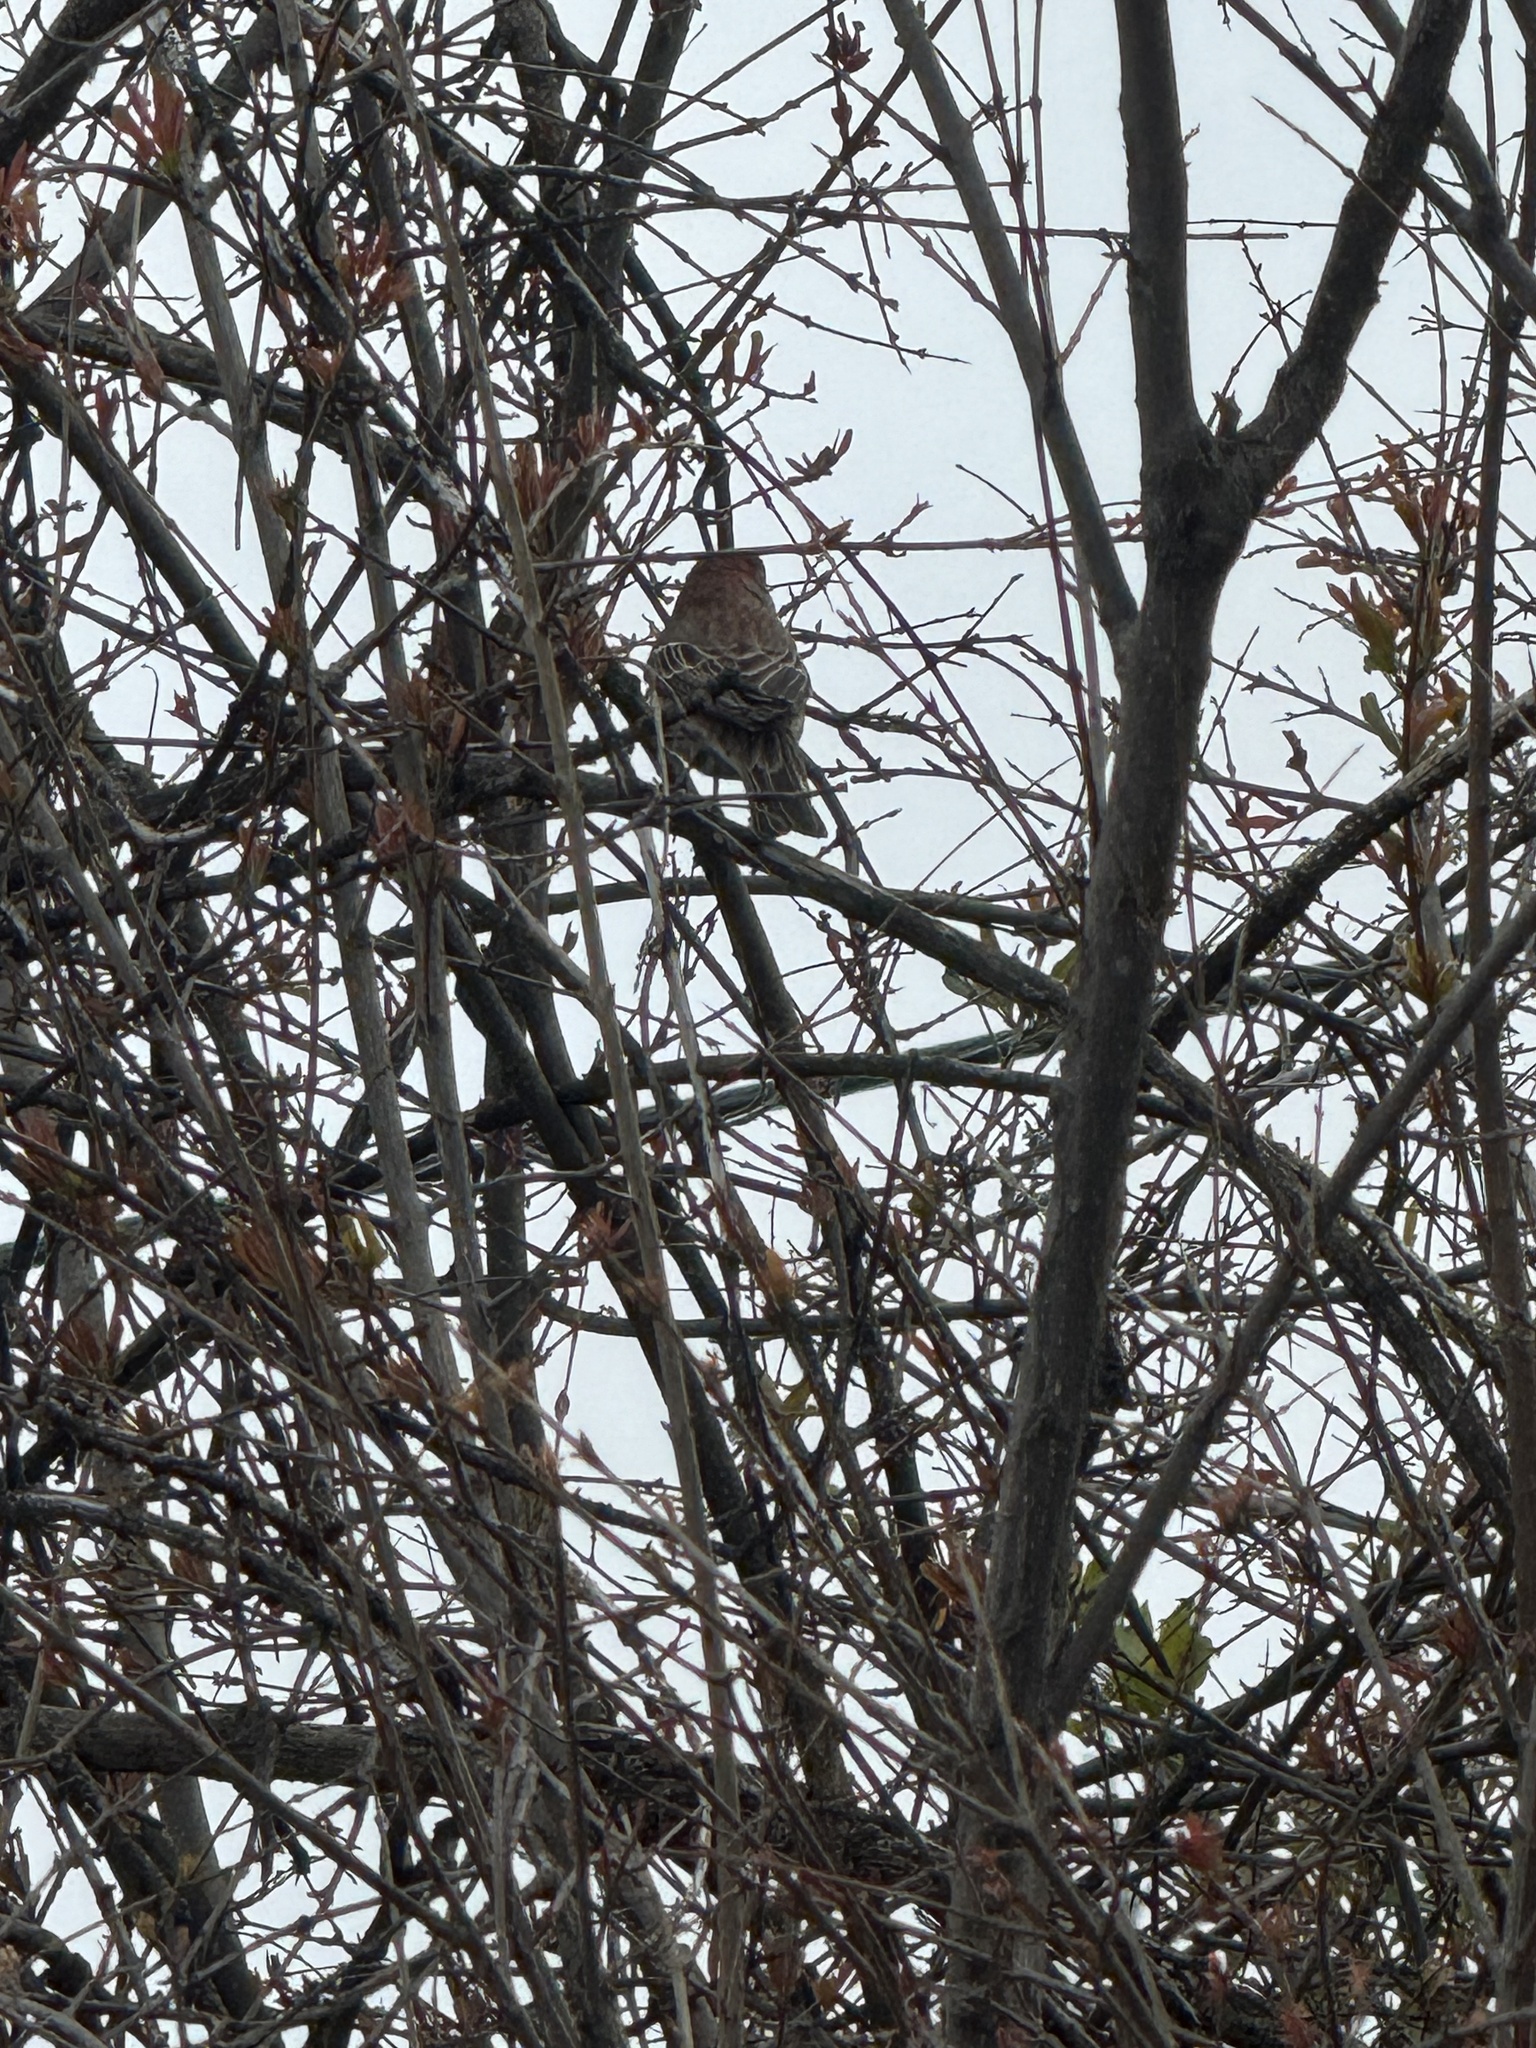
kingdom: Animalia
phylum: Chordata
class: Aves
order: Passeriformes
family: Fringillidae
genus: Haemorhous
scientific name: Haemorhous mexicanus
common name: House finch
